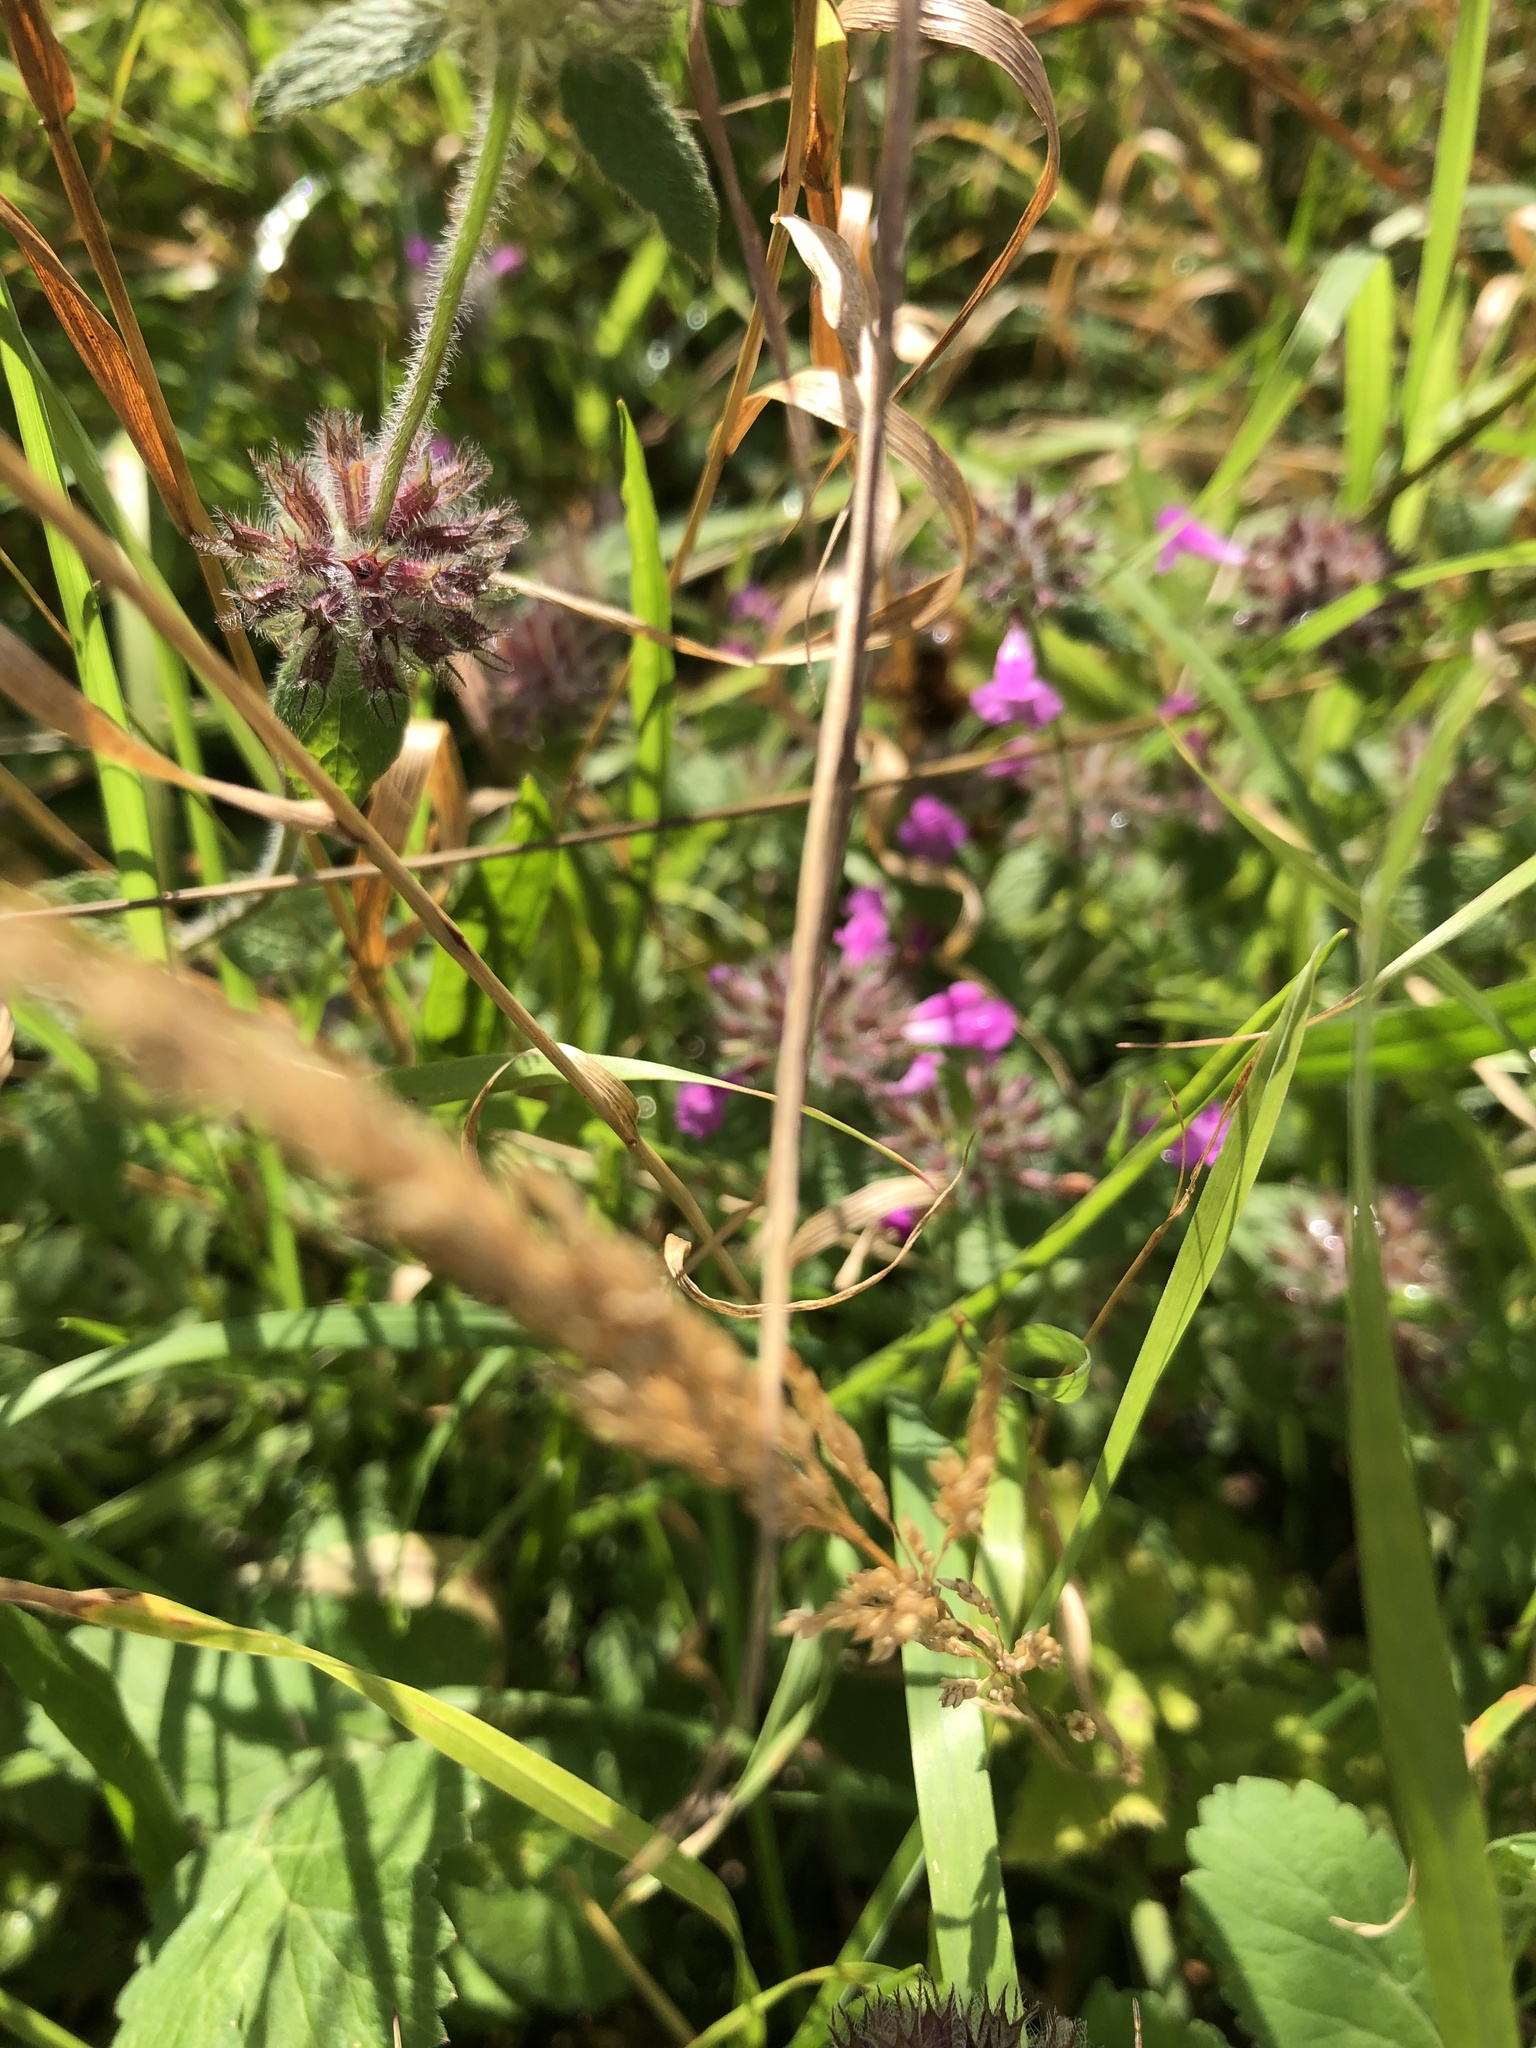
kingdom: Plantae
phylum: Tracheophyta
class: Magnoliopsida
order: Lamiales
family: Lamiaceae
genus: Clinopodium
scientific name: Clinopodium vulgare
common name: Wild basil
